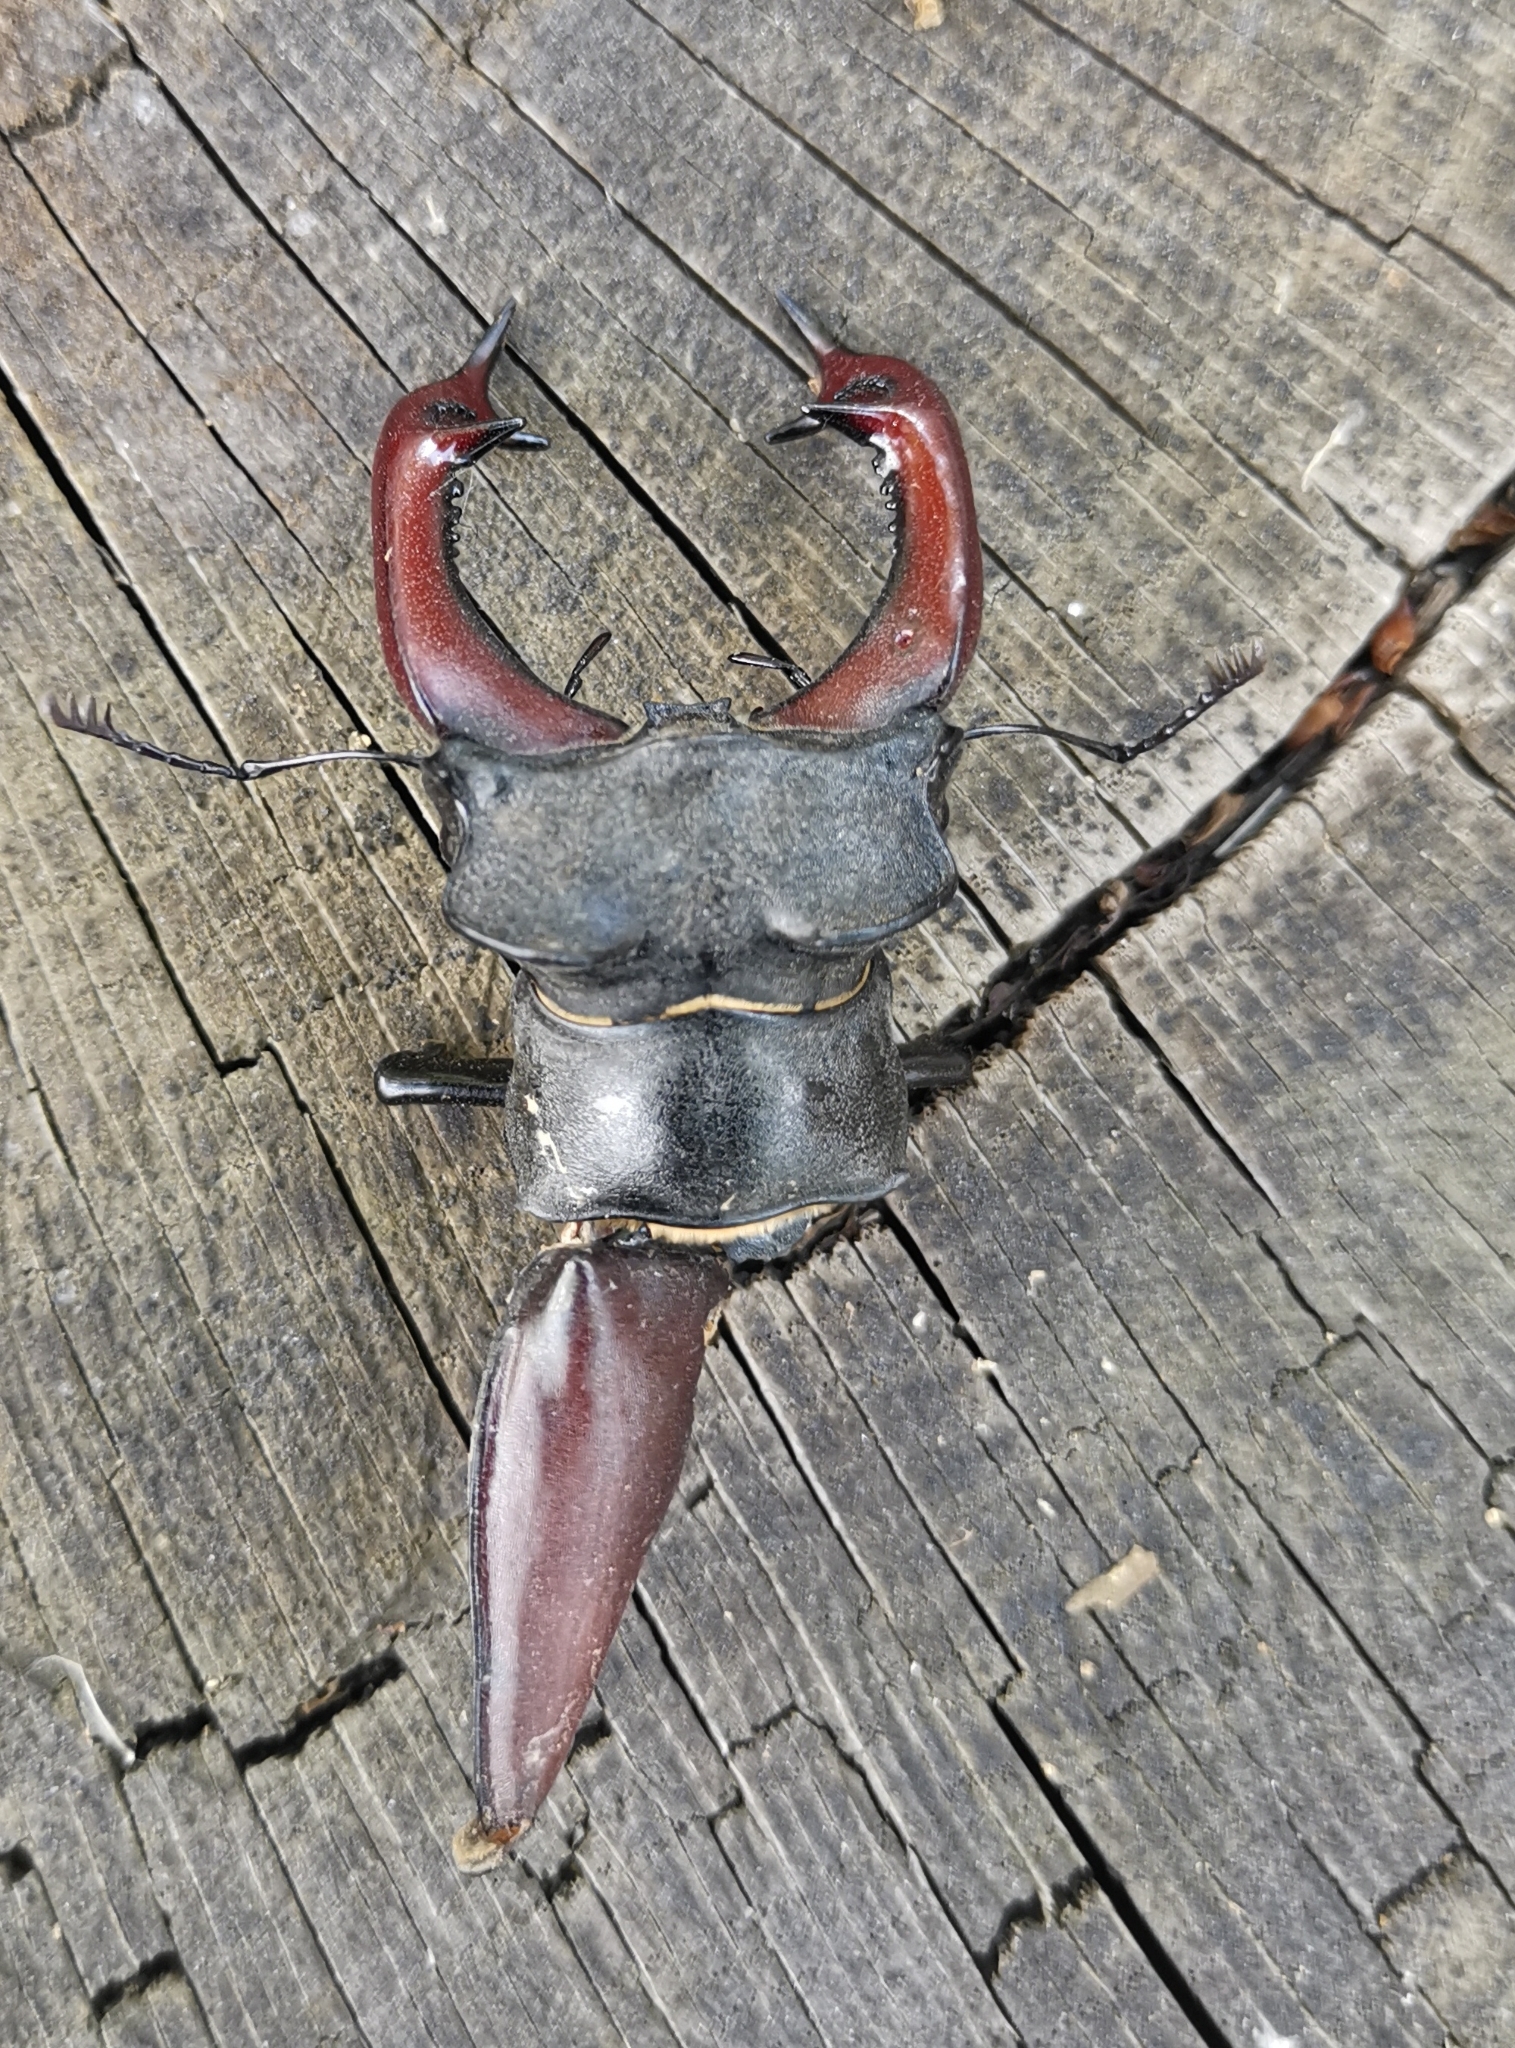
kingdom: Animalia
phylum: Arthropoda
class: Insecta
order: Coleoptera
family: Lucanidae
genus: Lucanus
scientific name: Lucanus cervus
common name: Stag beetle
